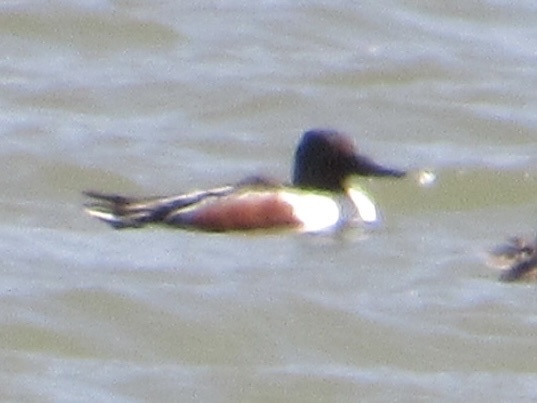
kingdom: Animalia
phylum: Chordata
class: Aves
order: Anseriformes
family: Anatidae
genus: Spatula
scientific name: Spatula clypeata
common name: Northern shoveler
